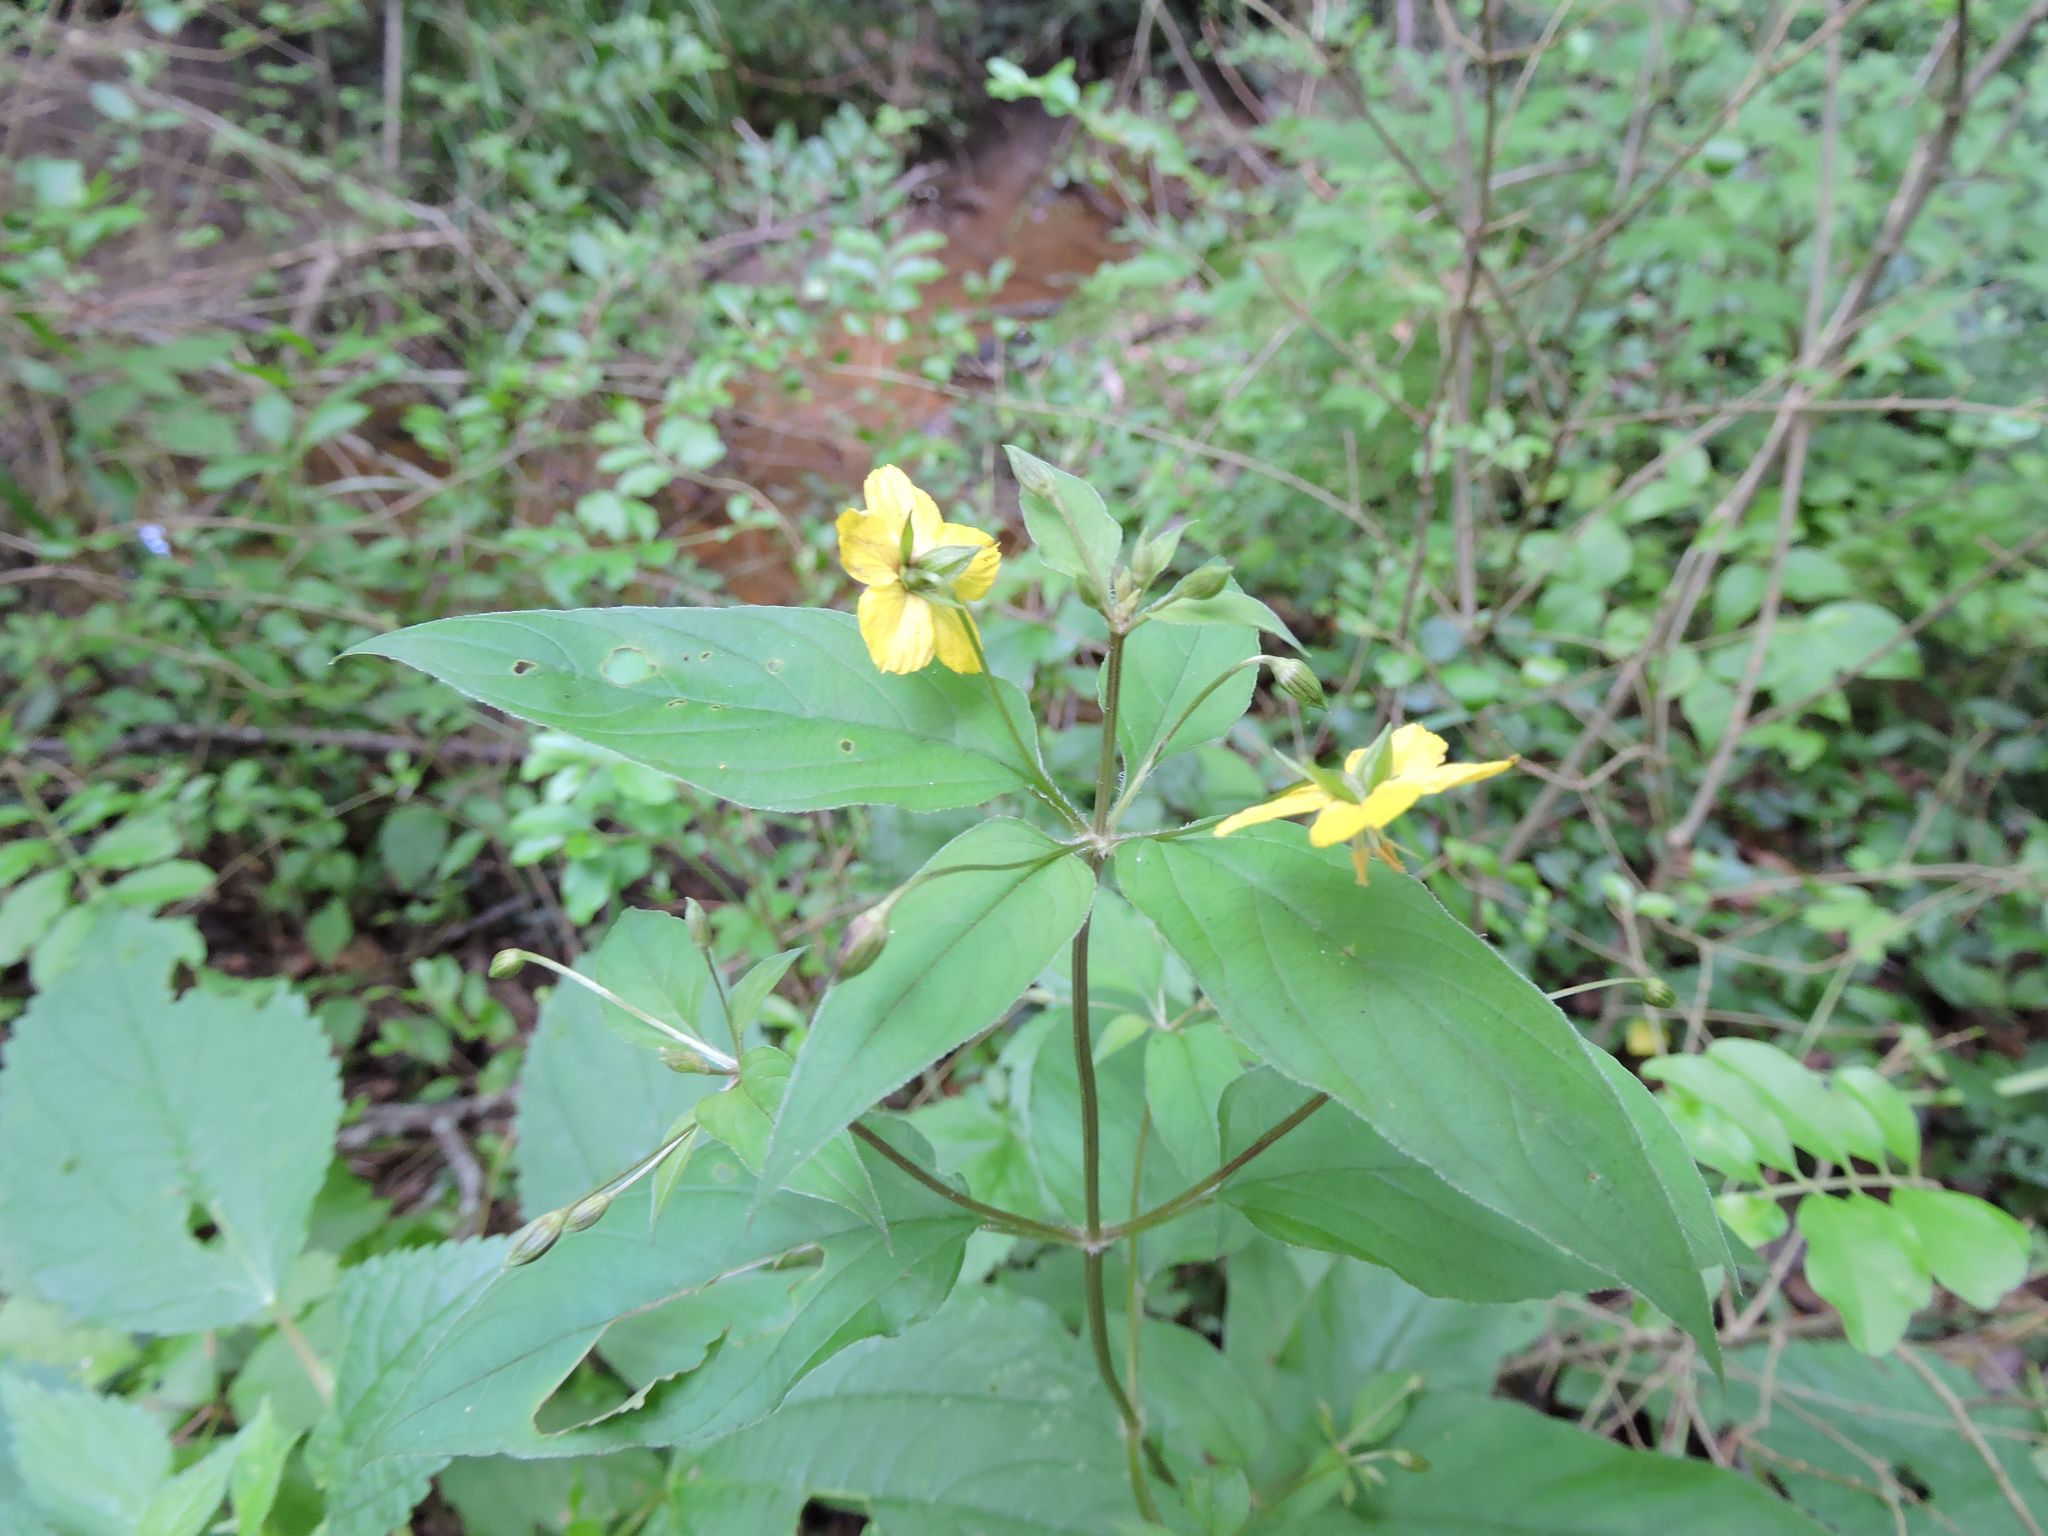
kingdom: Plantae
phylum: Tracheophyta
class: Magnoliopsida
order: Ericales
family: Primulaceae
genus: Lysimachia
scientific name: Lysimachia ciliata
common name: Fringed loosestrife
